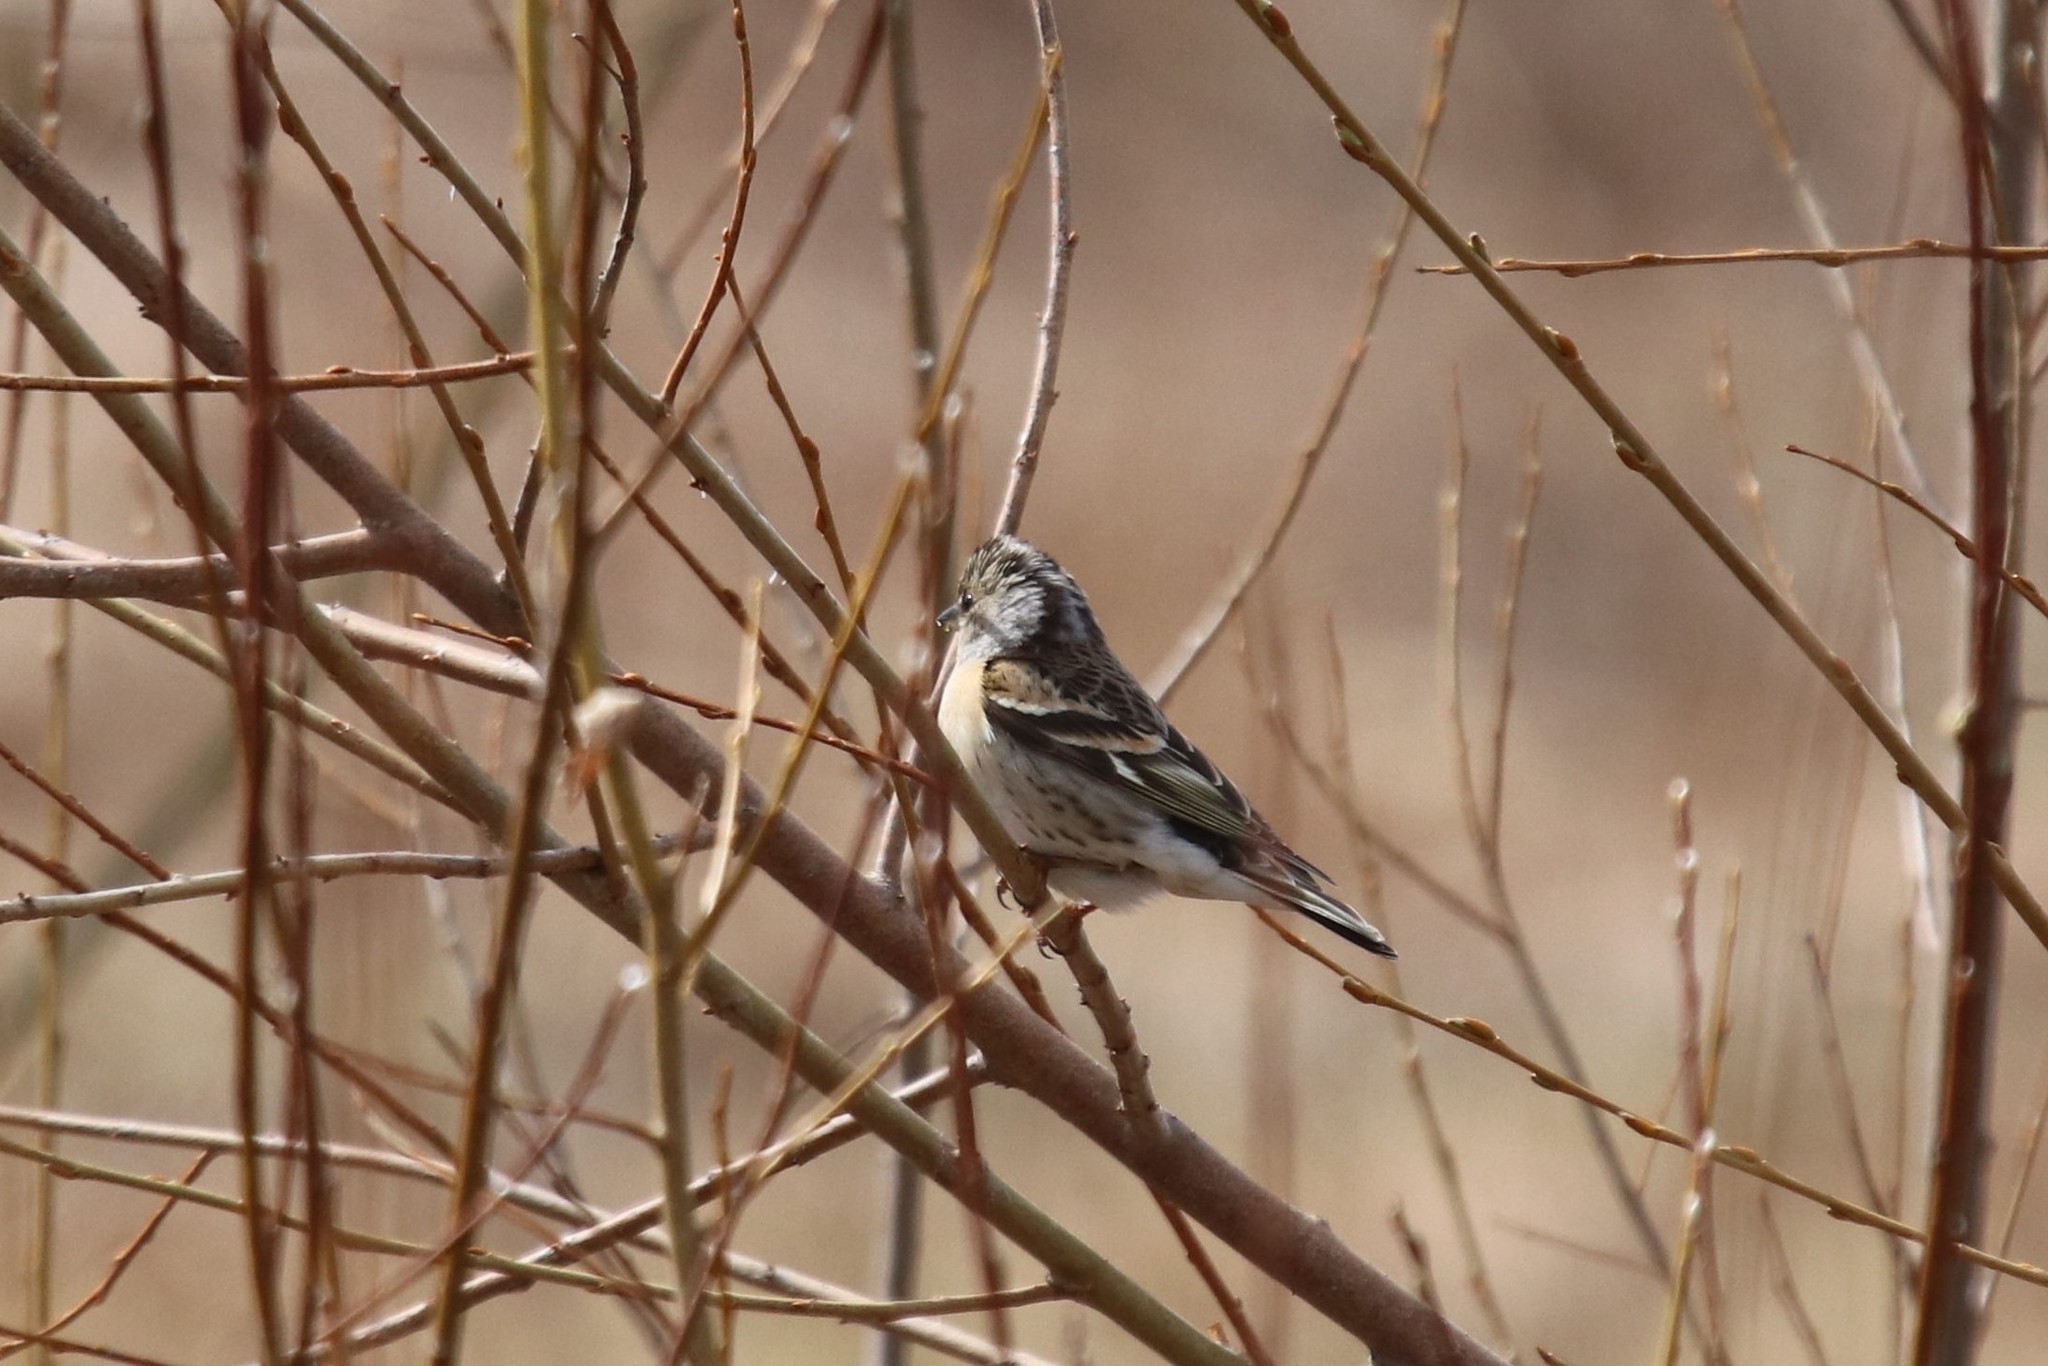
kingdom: Animalia
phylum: Chordata
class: Aves
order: Passeriformes
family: Fringillidae
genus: Fringilla
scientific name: Fringilla montifringilla
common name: Brambling
